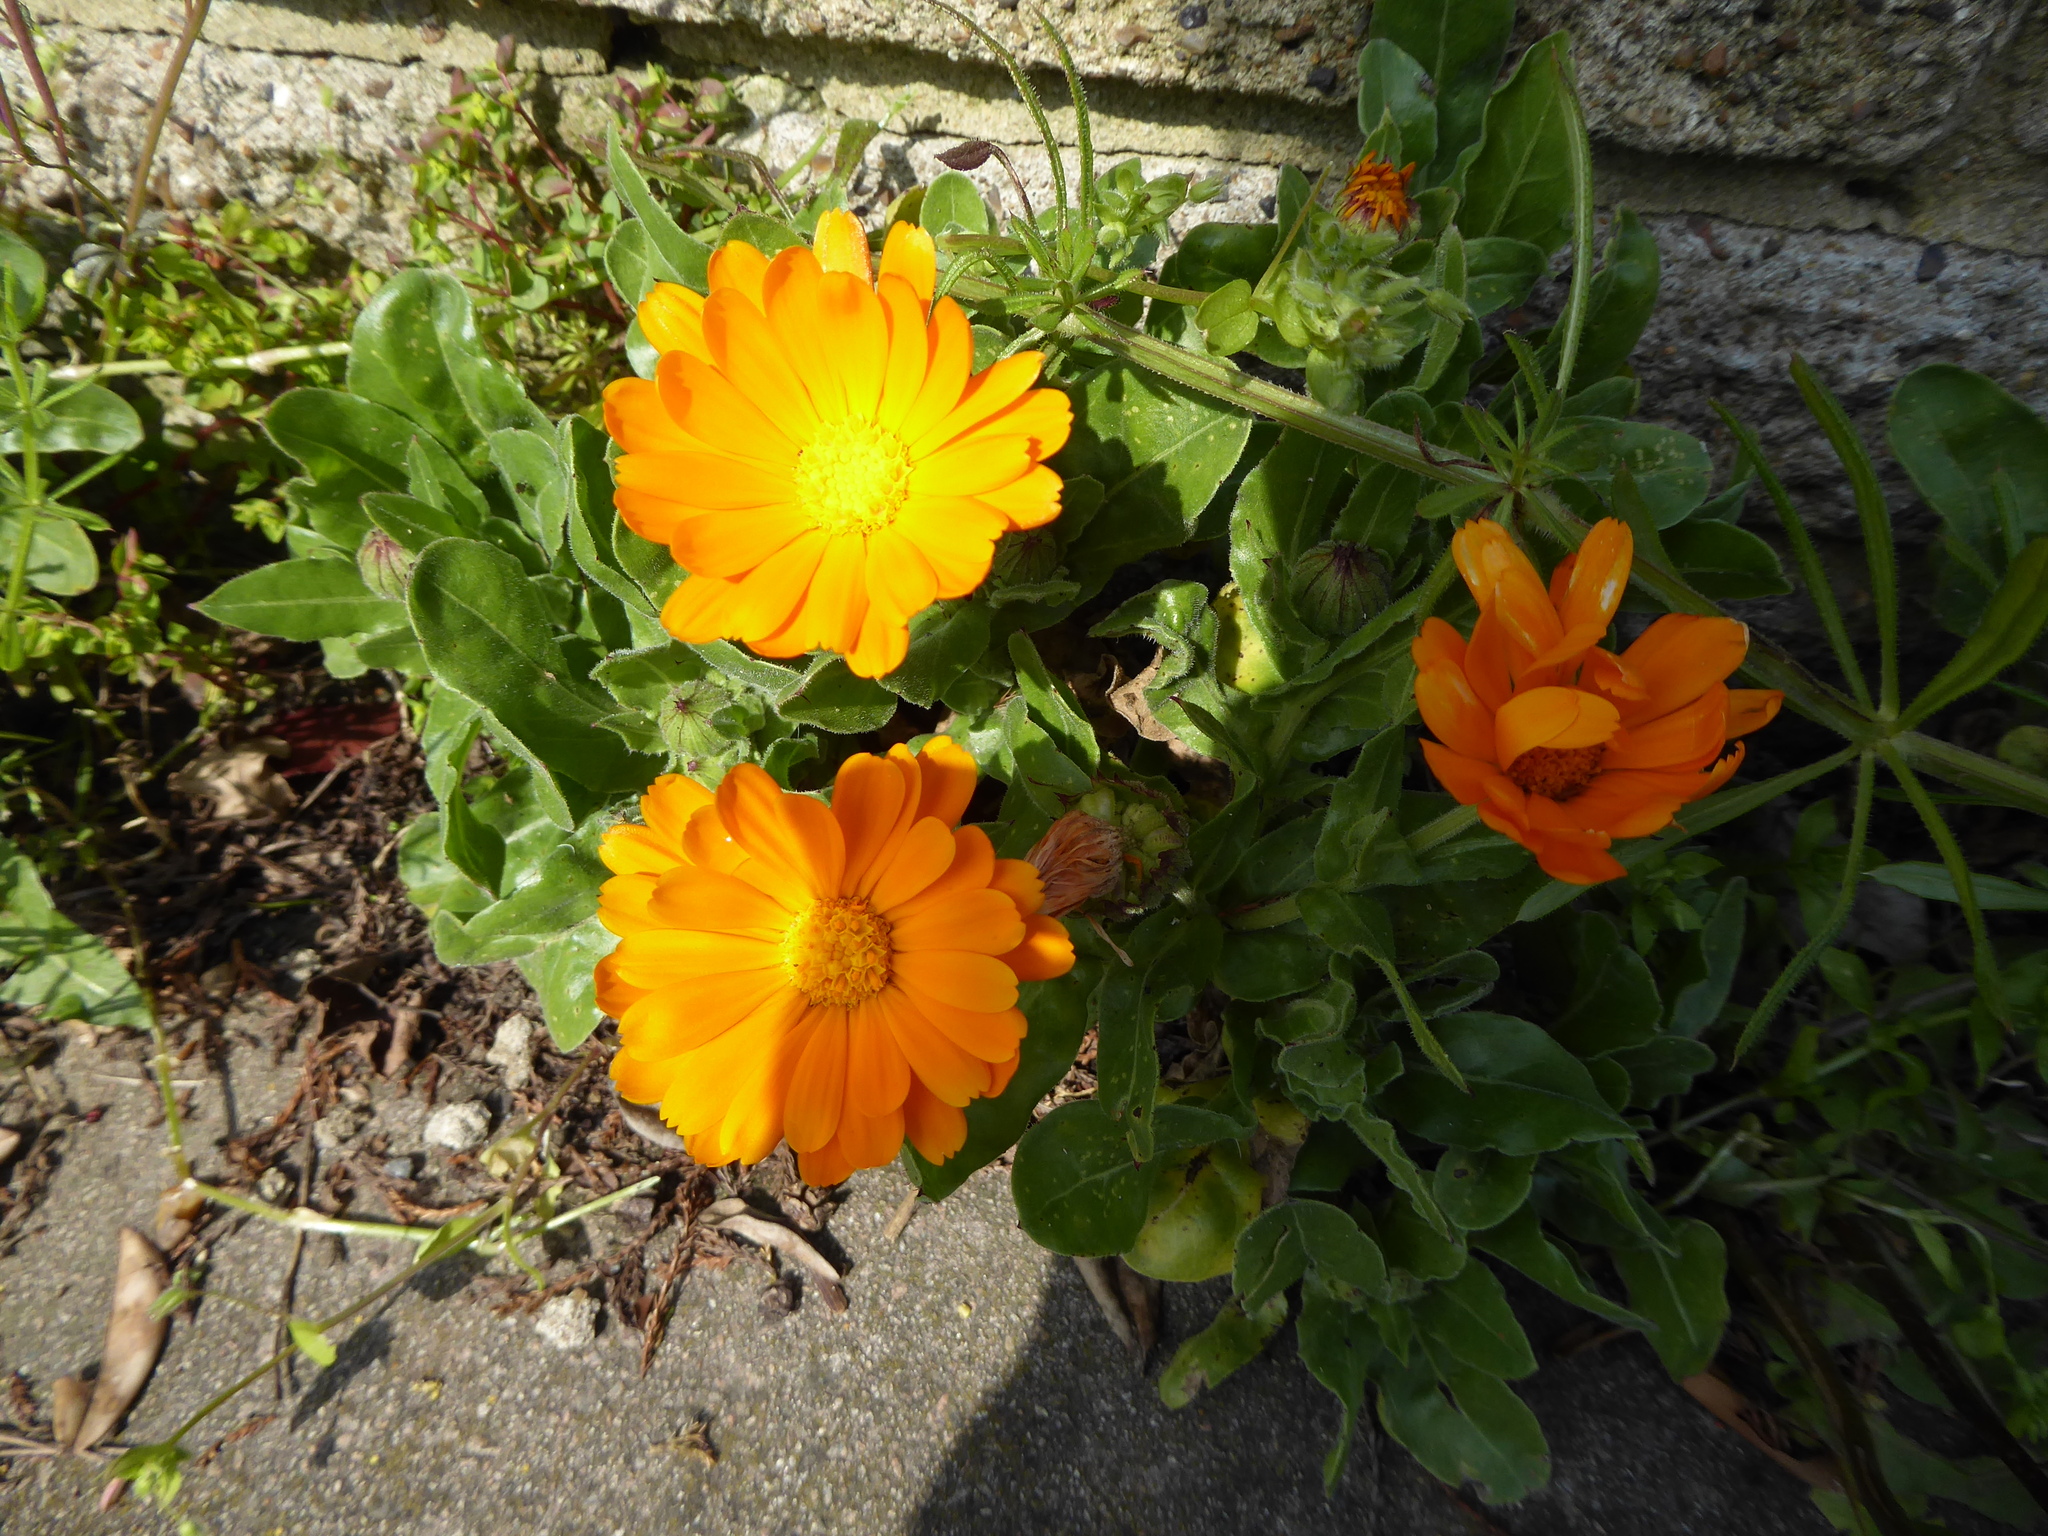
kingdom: Plantae
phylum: Tracheophyta
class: Magnoliopsida
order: Asterales
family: Asteraceae
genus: Calendula
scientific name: Calendula officinalis
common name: Pot marigold
